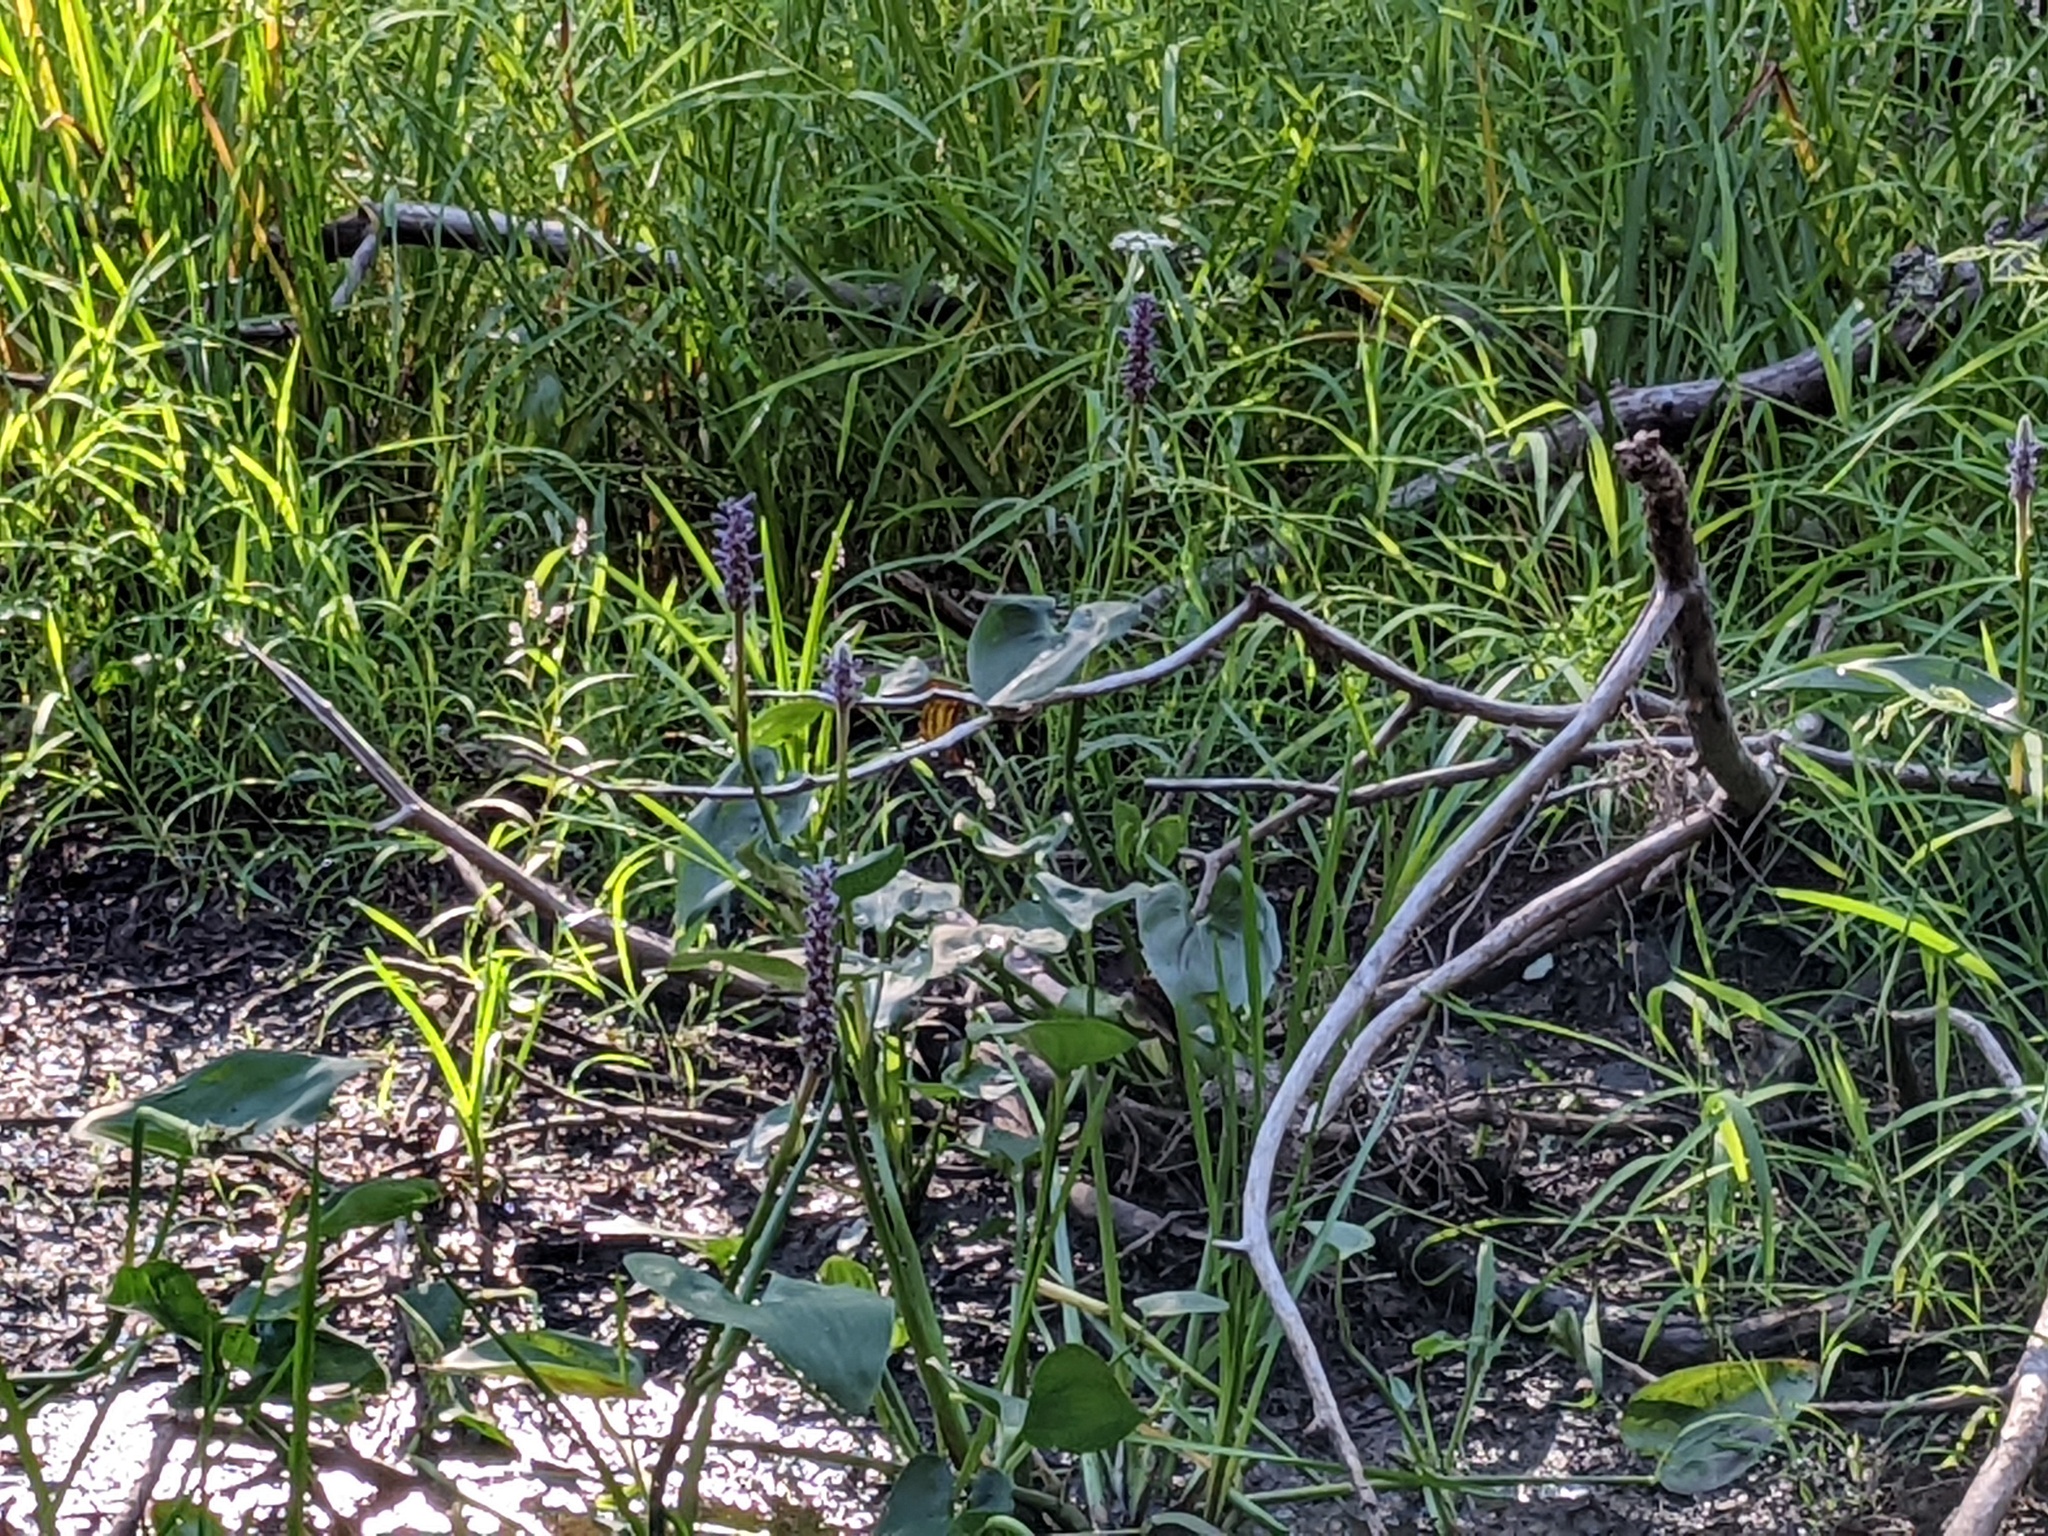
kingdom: Plantae
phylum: Tracheophyta
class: Liliopsida
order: Commelinales
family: Pontederiaceae
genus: Pontederia
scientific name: Pontederia cordata
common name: Pickerelweed
